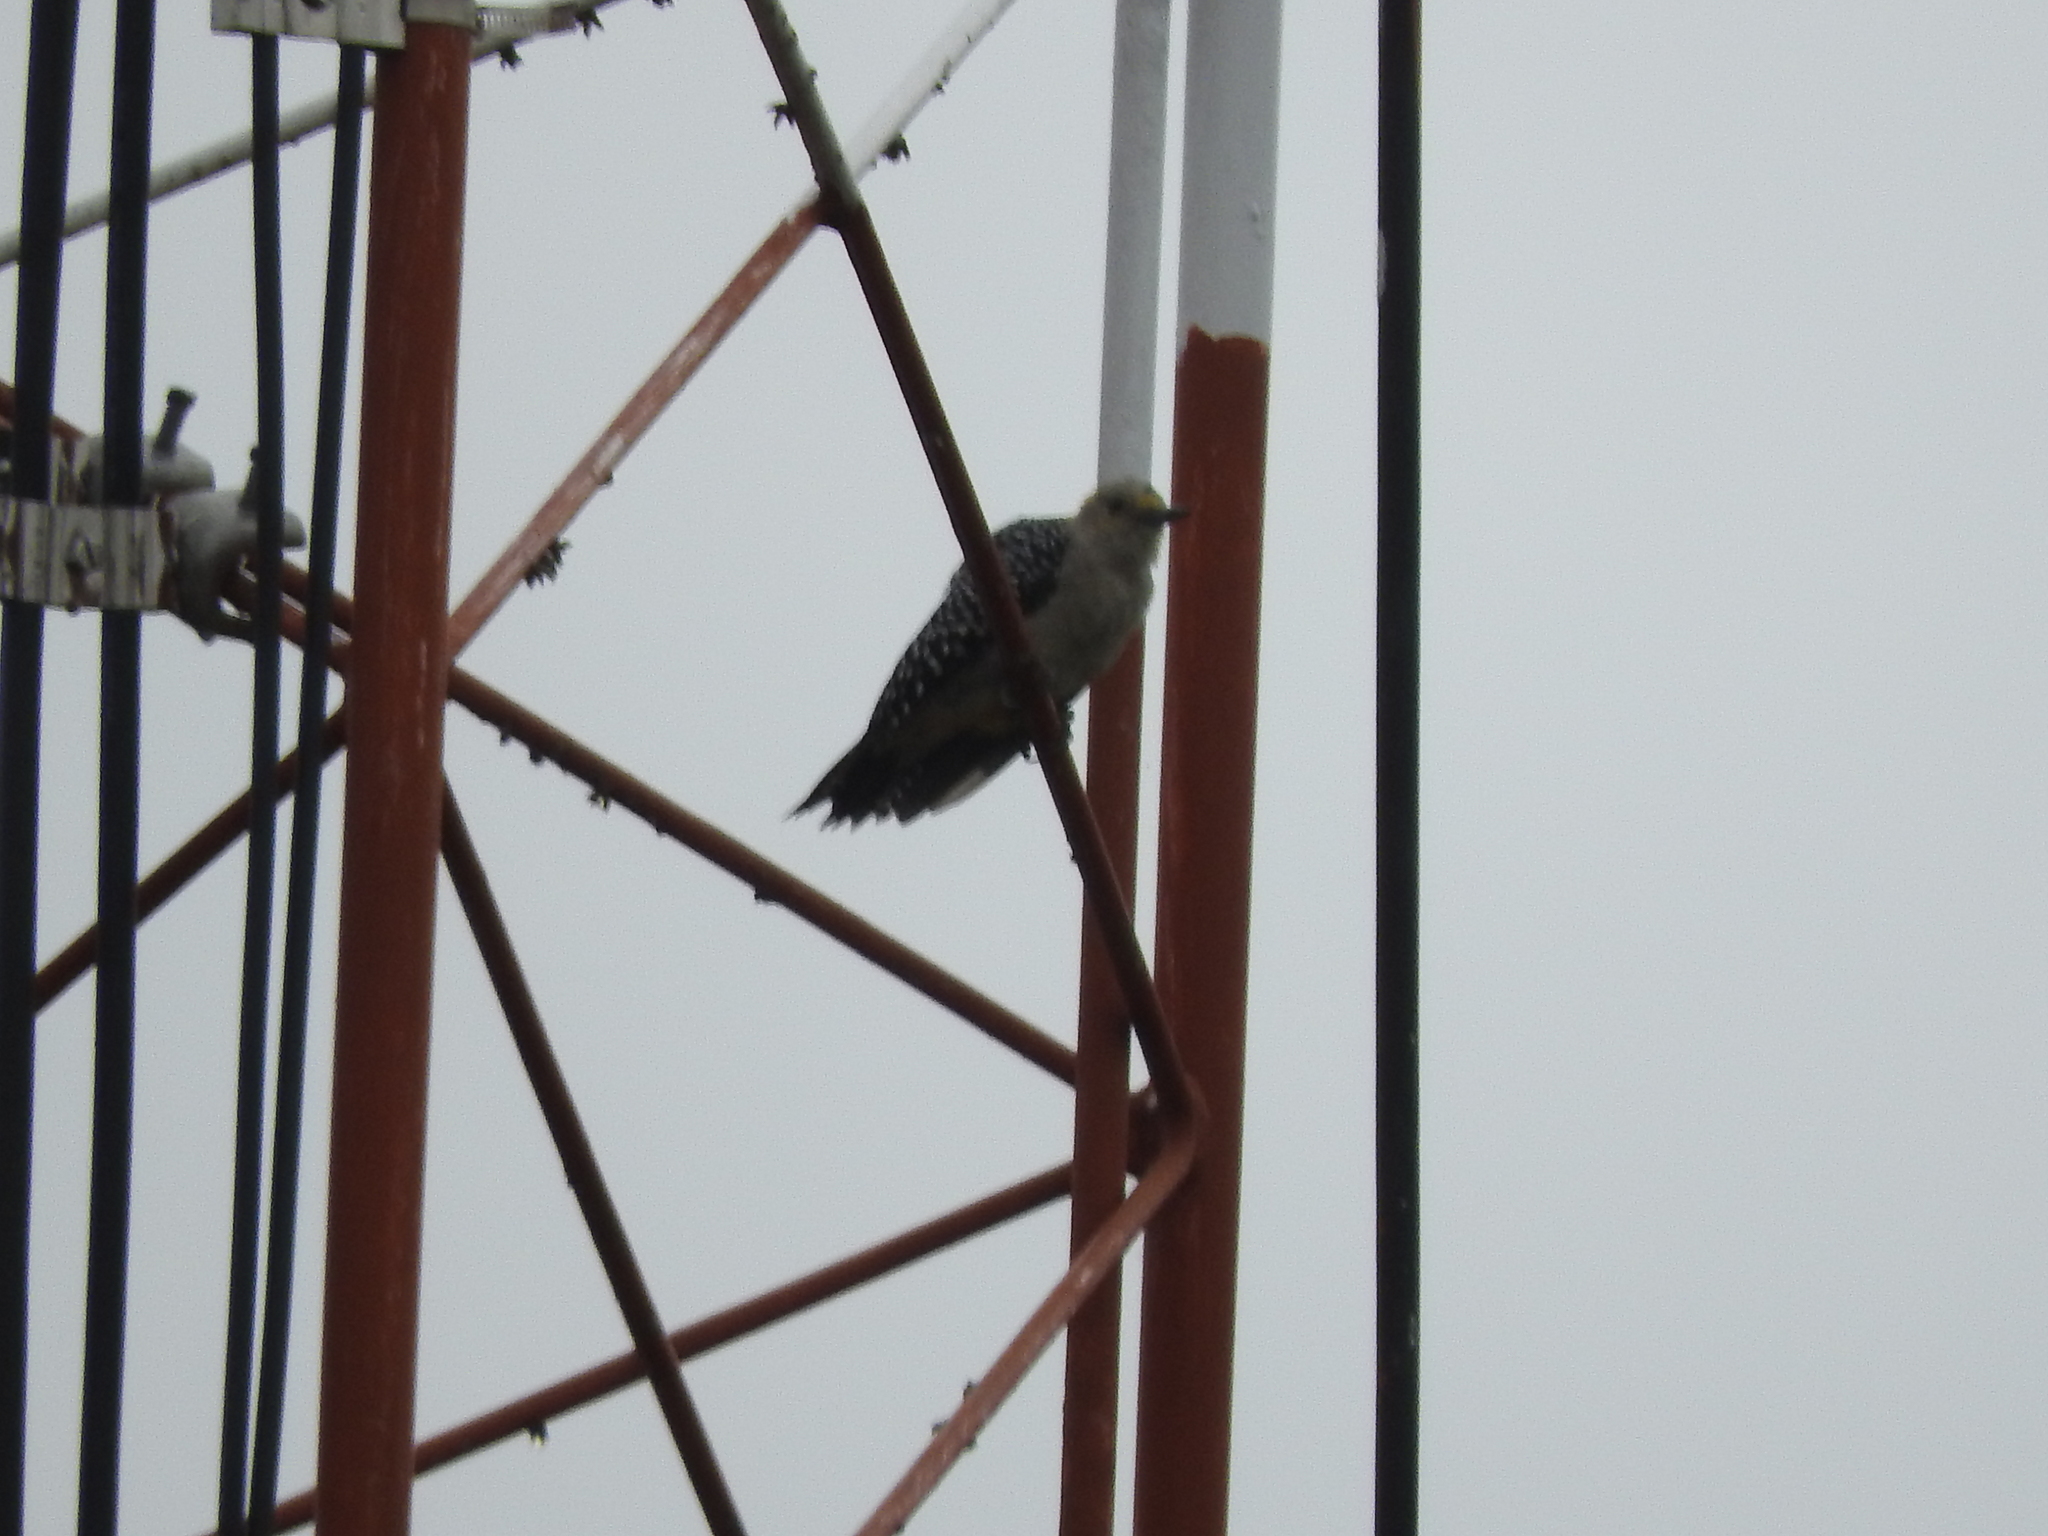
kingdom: Animalia
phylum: Chordata
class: Aves
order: Piciformes
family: Picidae
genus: Melanerpes
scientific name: Melanerpes aurifrons
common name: Golden-fronted woodpecker
